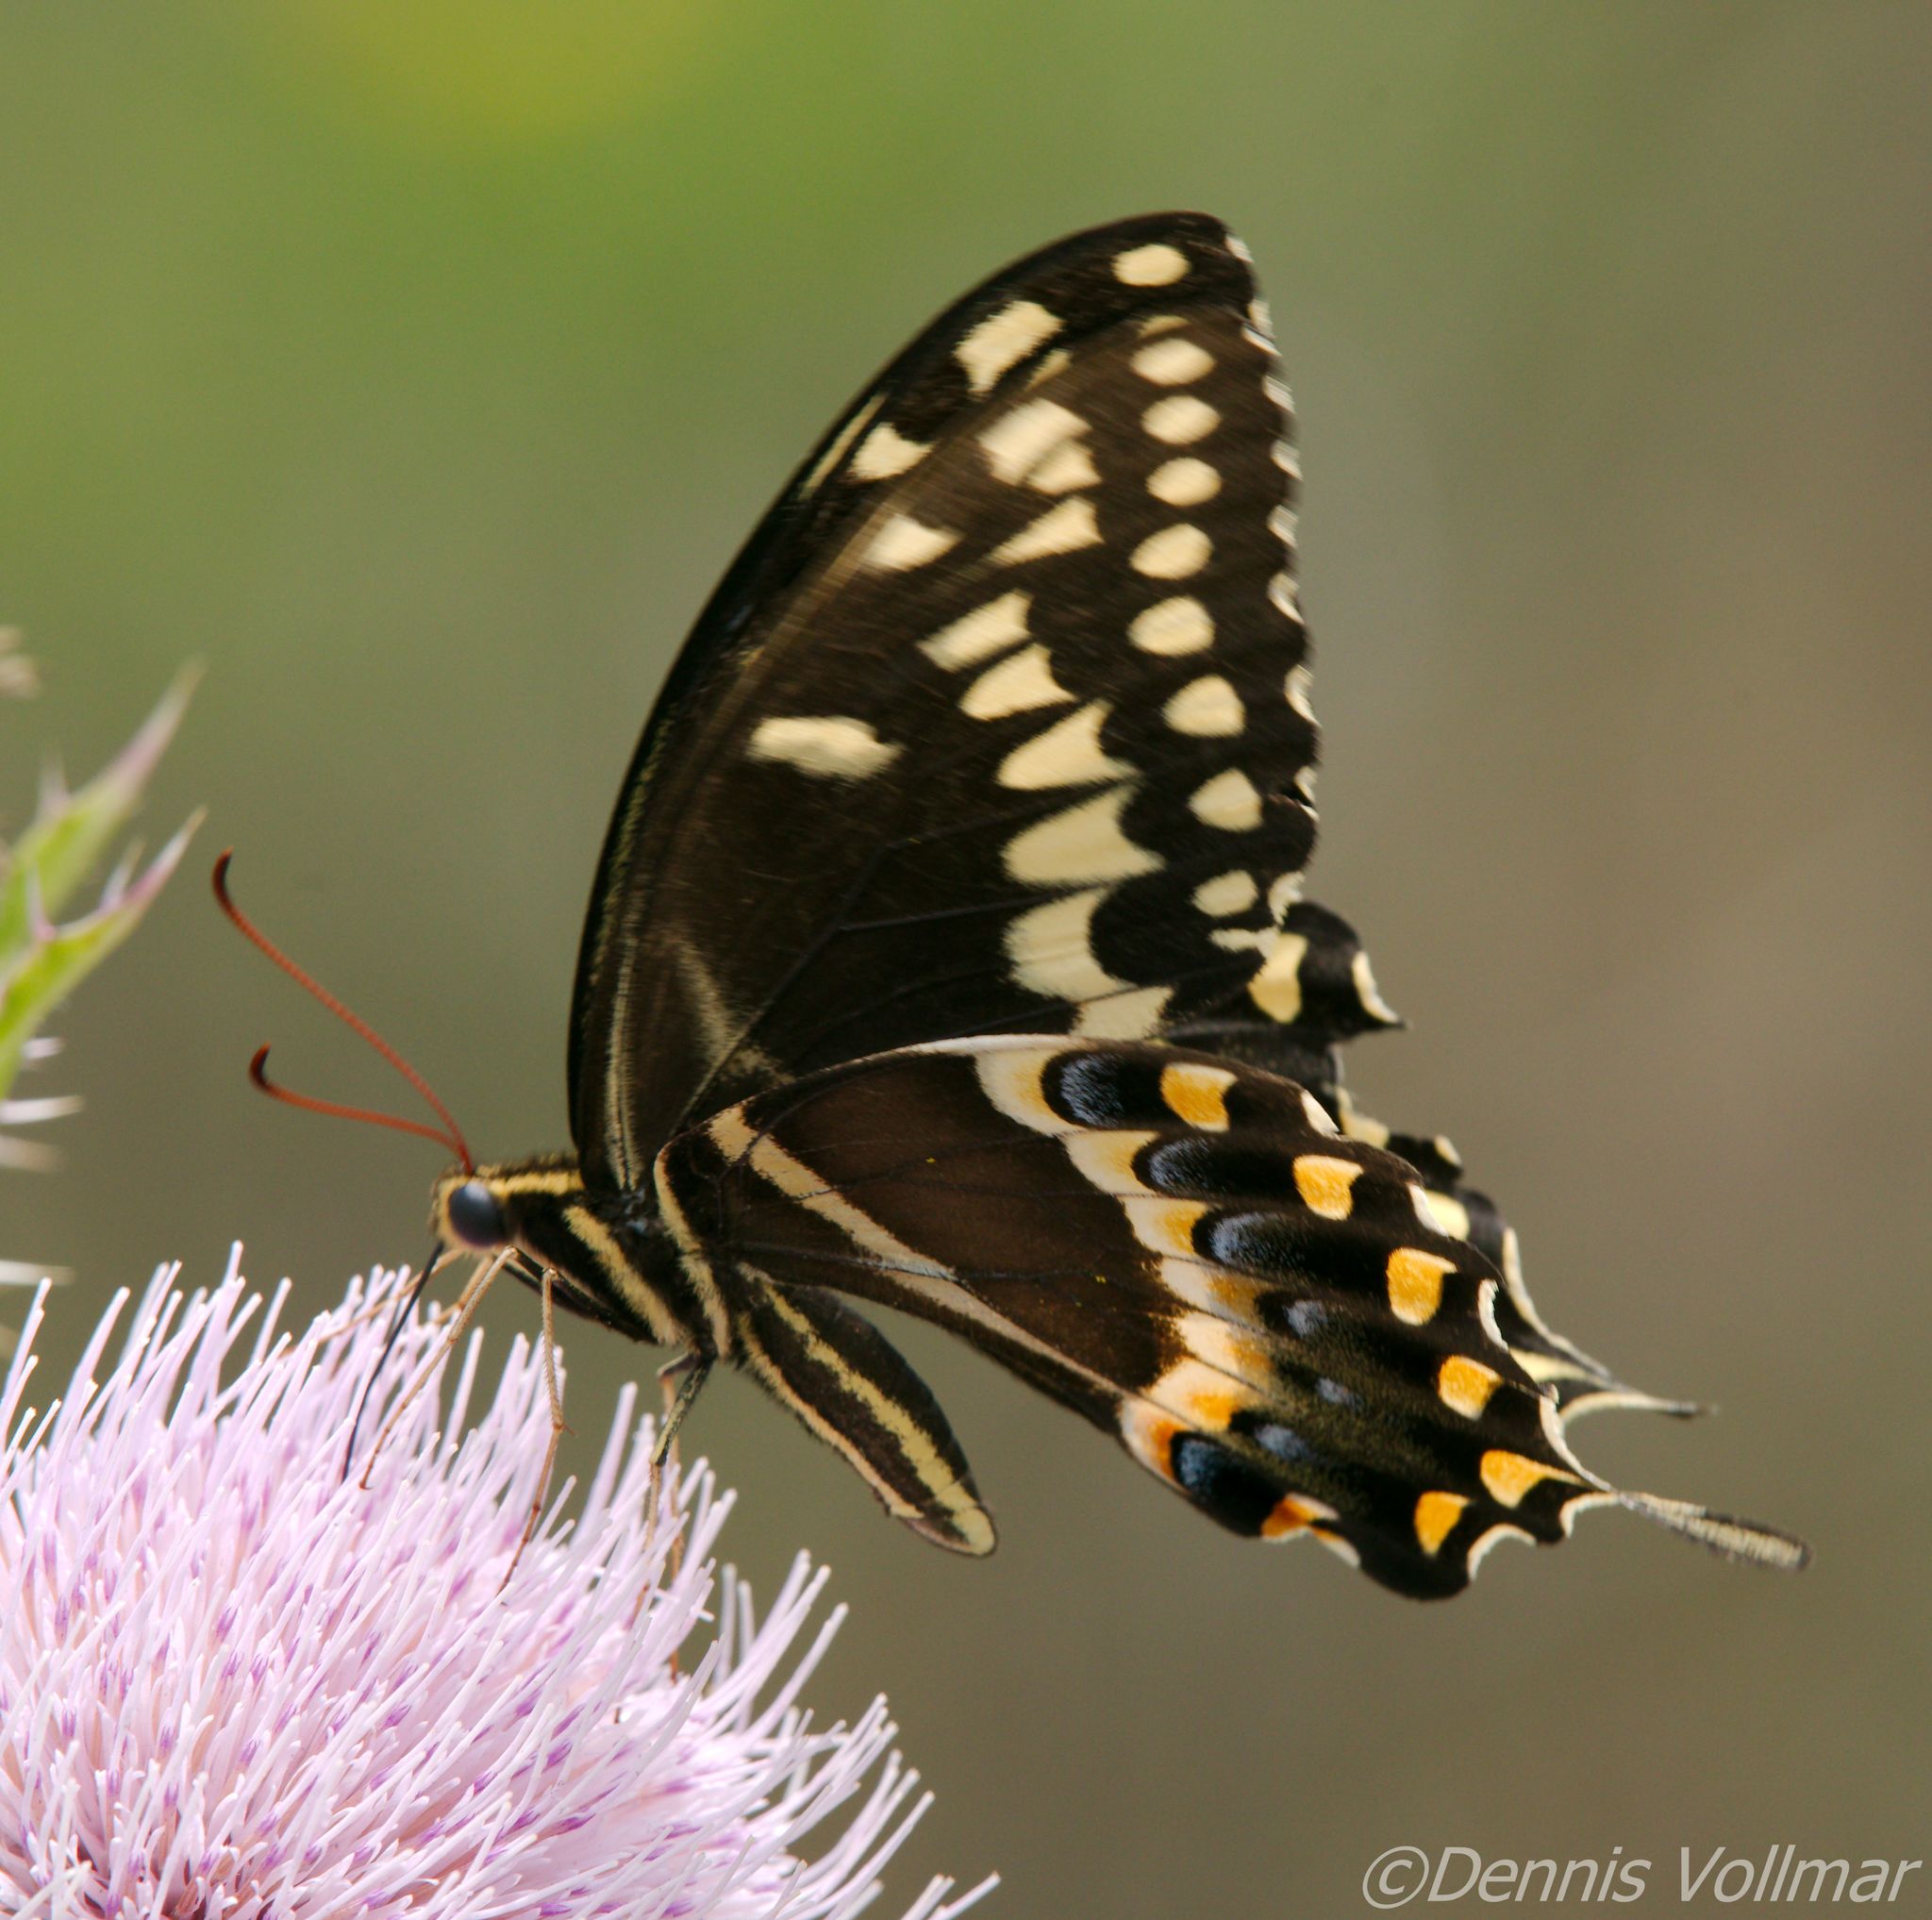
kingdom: Animalia
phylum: Arthropoda
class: Insecta
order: Lepidoptera
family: Papilionidae
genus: Papilio
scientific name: Papilio palamedes
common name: Palamedes swallowtail
